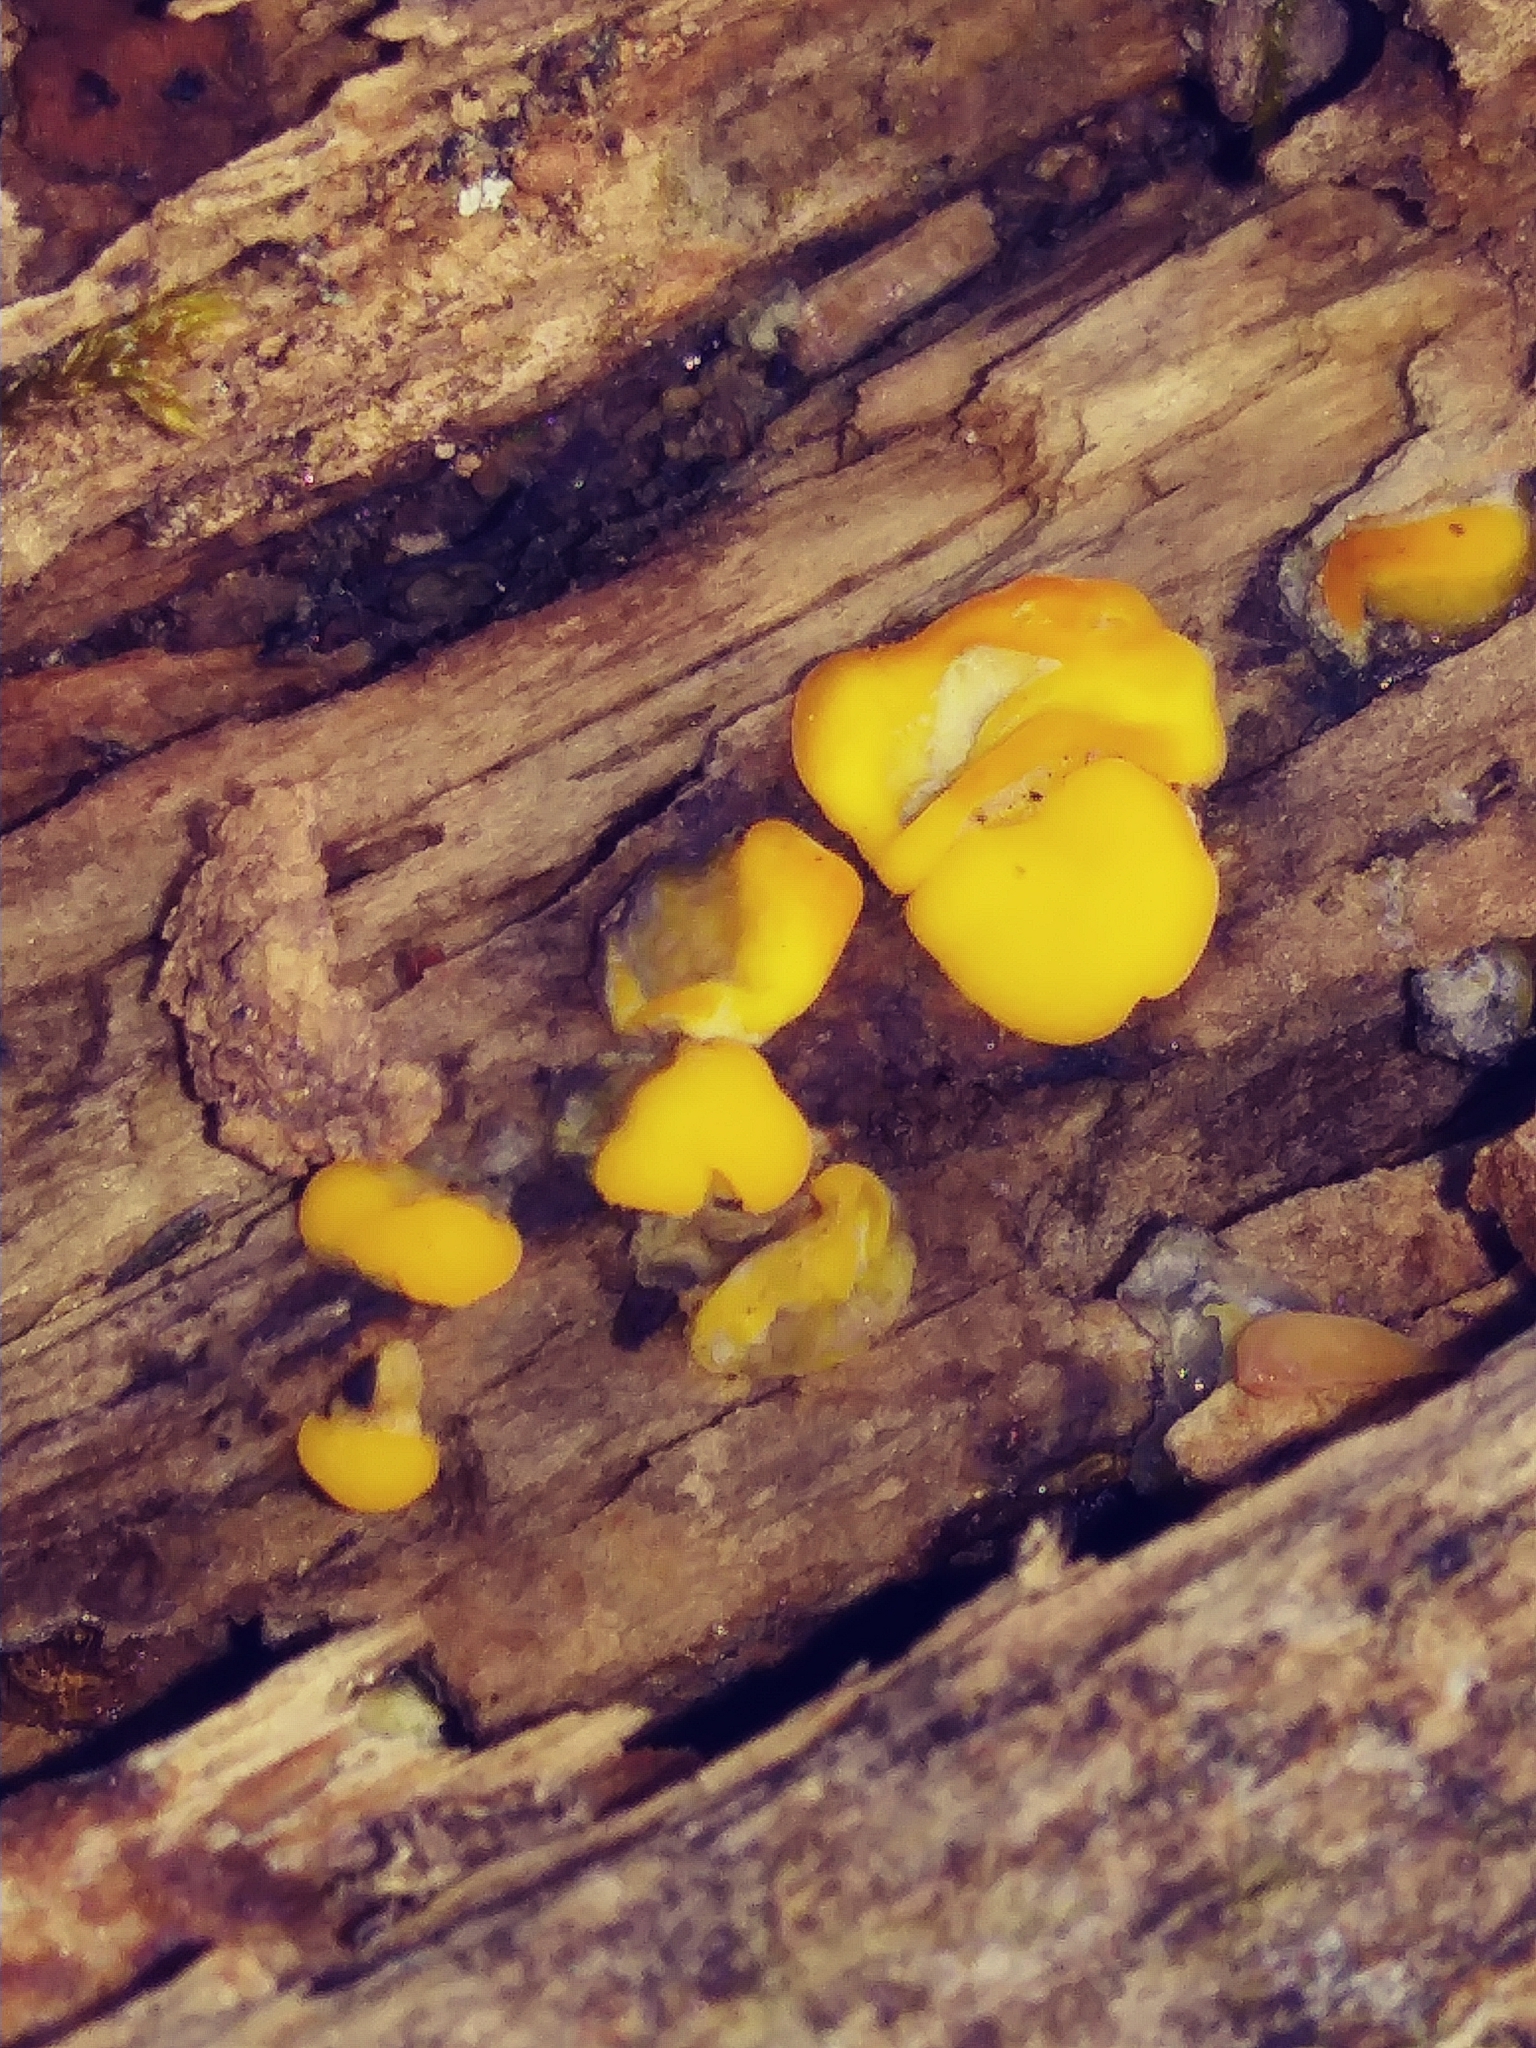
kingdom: Fungi
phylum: Basidiomycota
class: Tremellomycetes
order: Tremellales
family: Tremellaceae
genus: Tremella
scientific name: Tremella mesenterica
